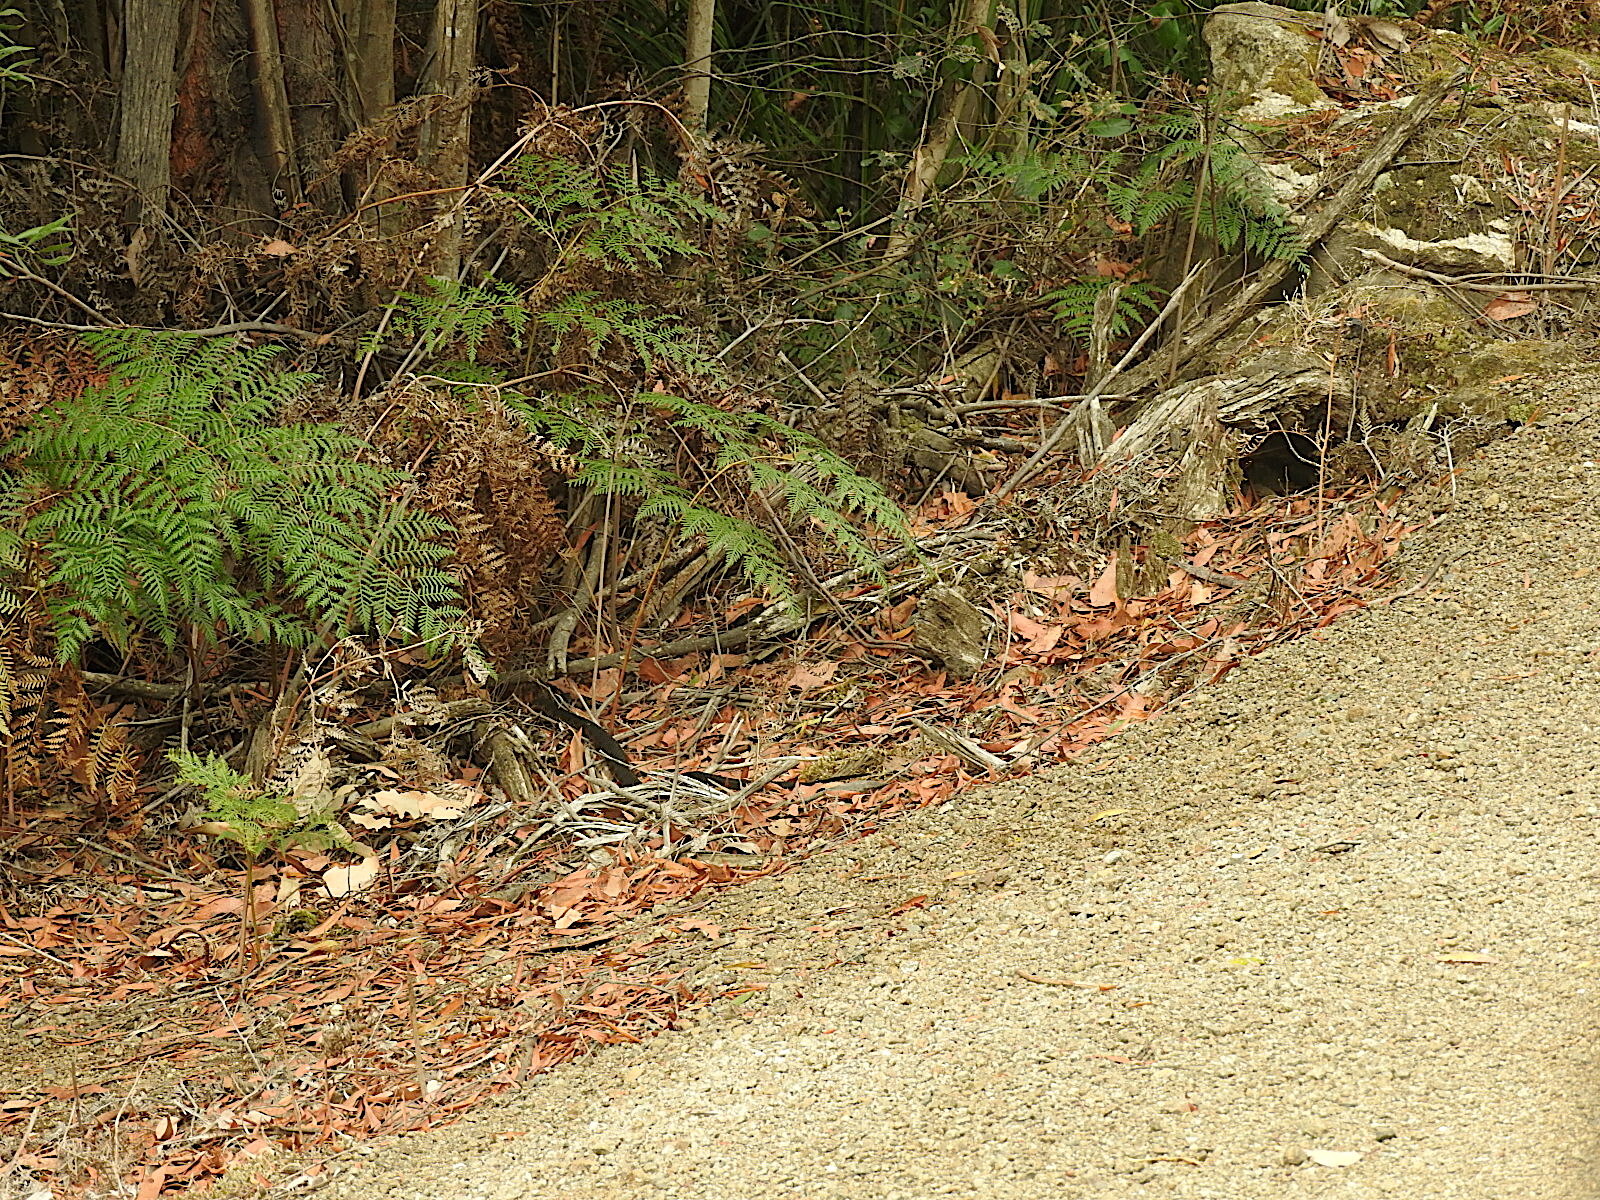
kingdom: Animalia
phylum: Chordata
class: Squamata
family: Elapidae
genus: Notechis
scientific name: Notechis scutatus
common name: Mainland tiger snake
